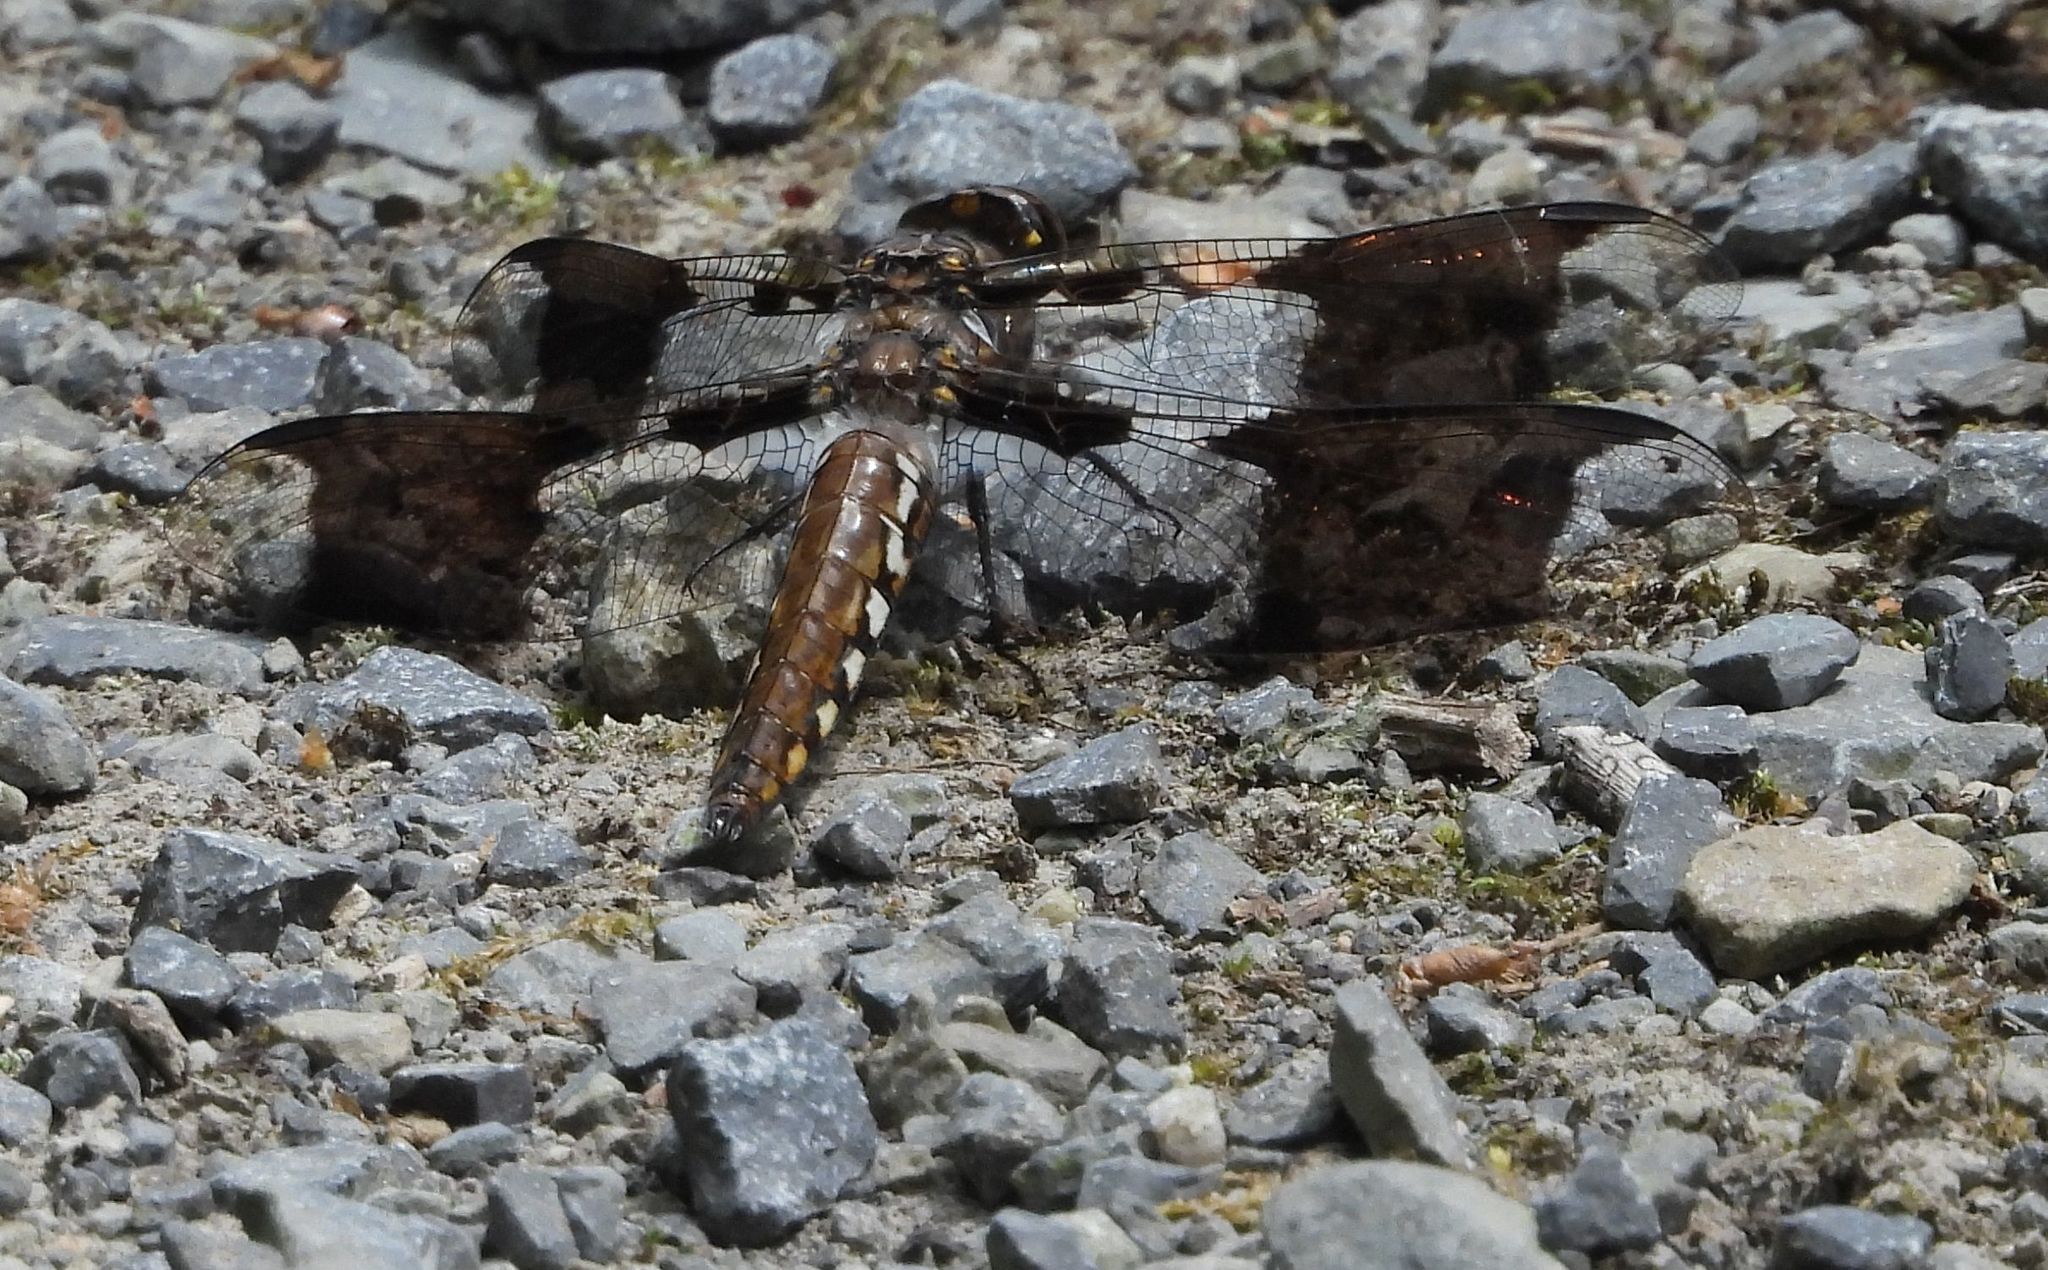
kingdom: Animalia
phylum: Arthropoda
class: Insecta
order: Odonata
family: Libellulidae
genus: Plathemis
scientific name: Plathemis lydia
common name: Common whitetail
